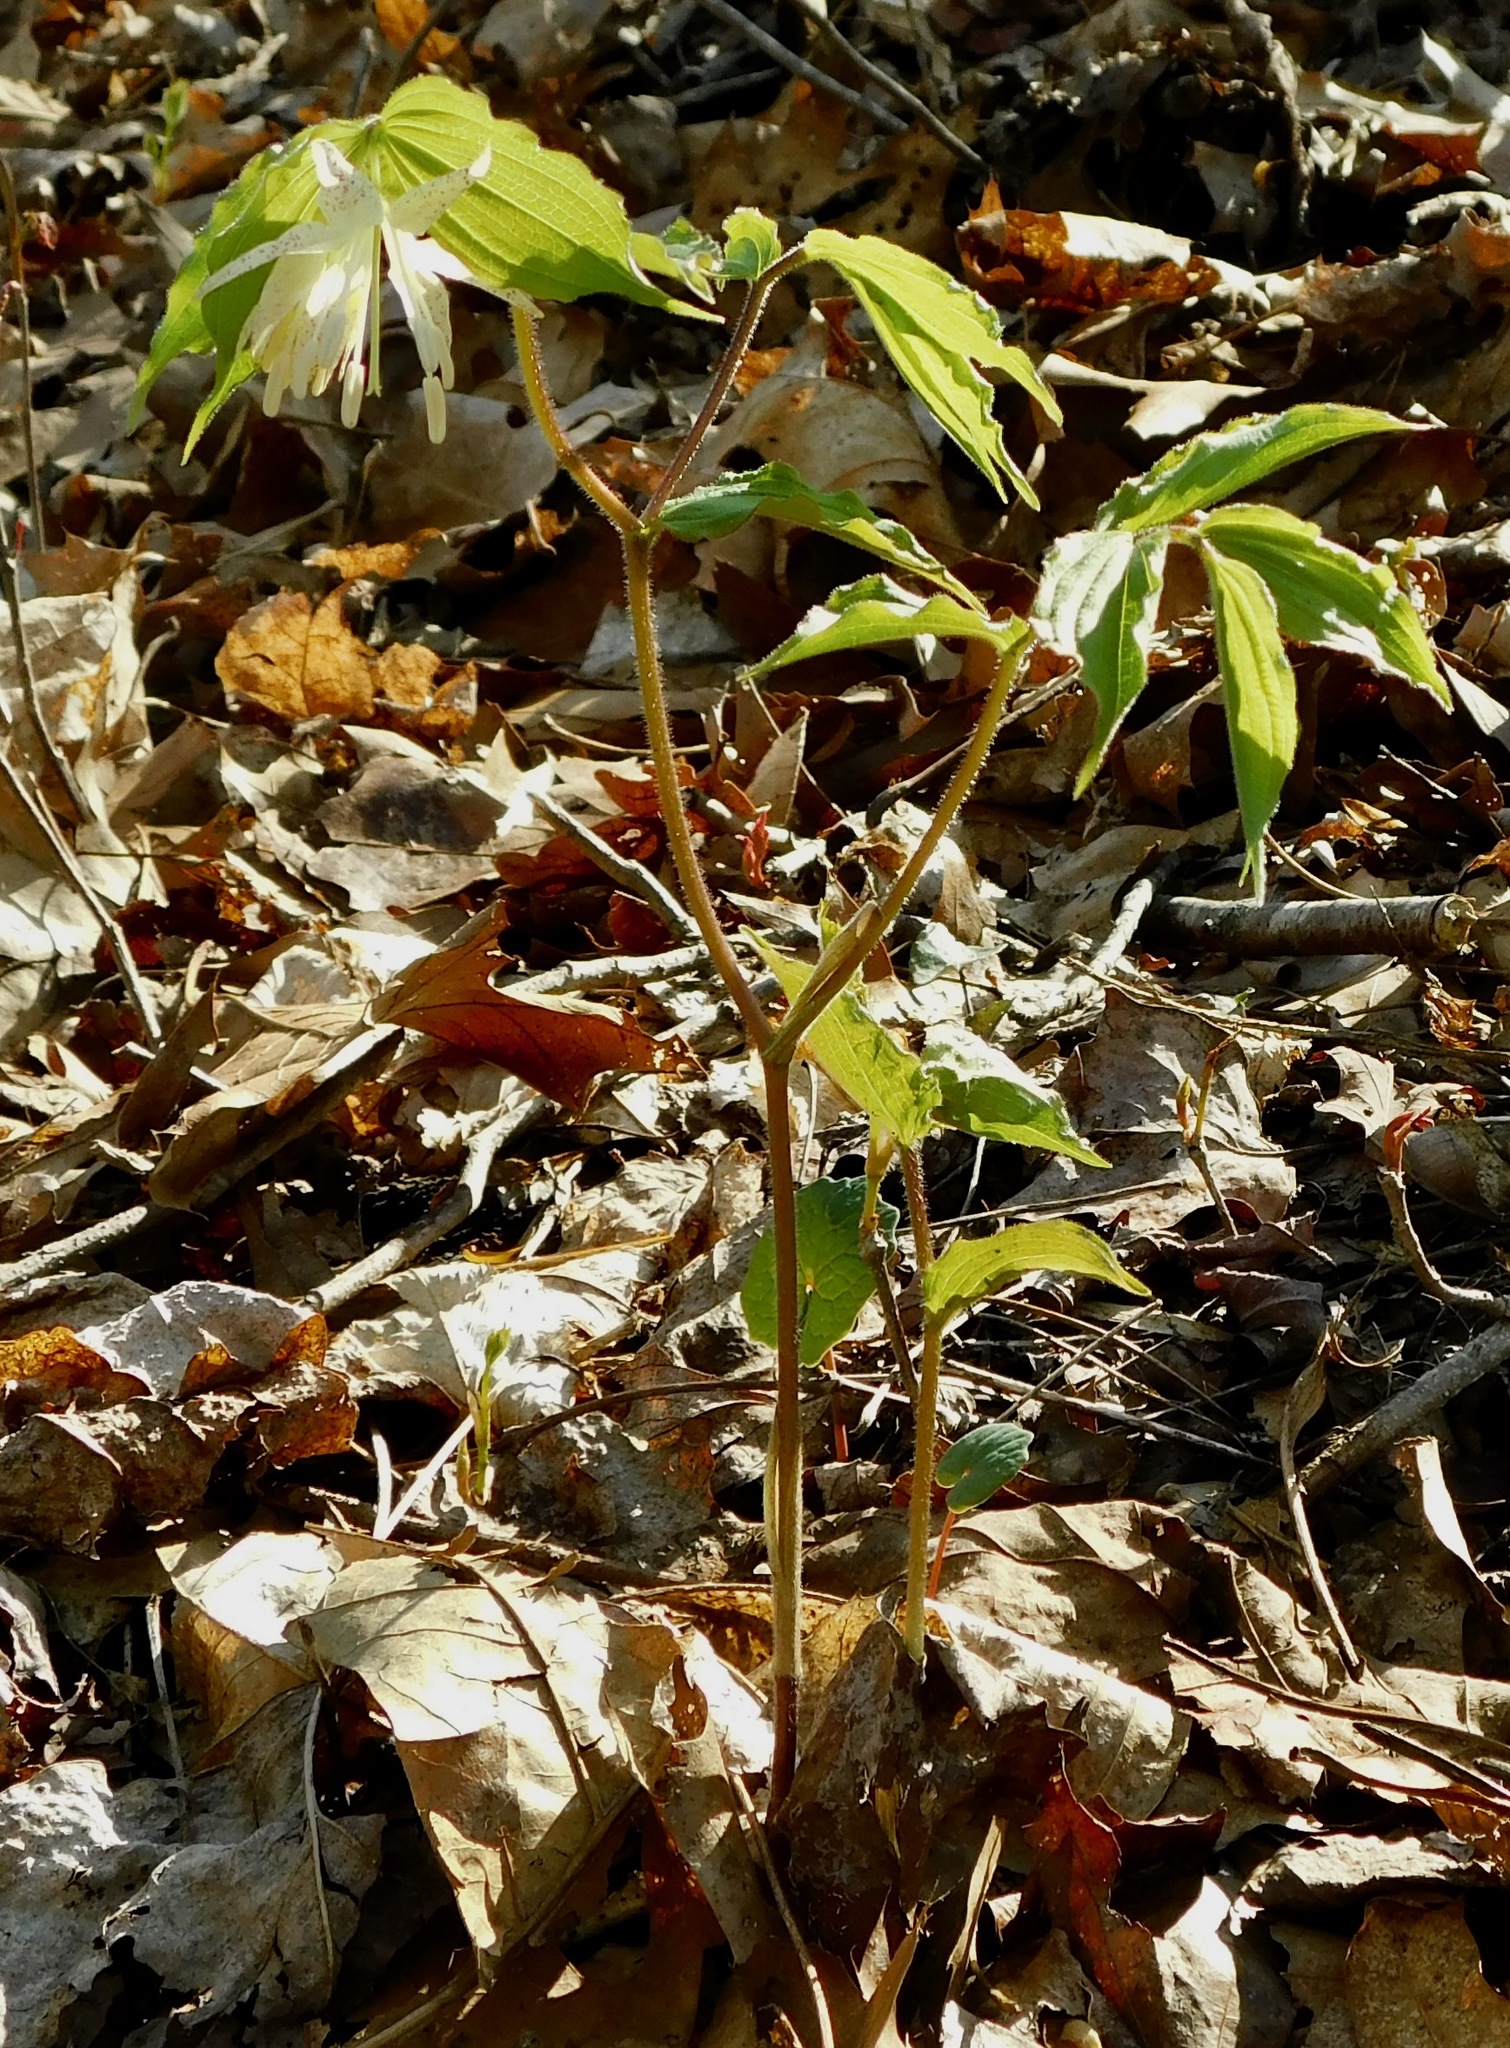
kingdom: Plantae
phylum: Tracheophyta
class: Liliopsida
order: Liliales
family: Liliaceae
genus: Prosartes
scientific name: Prosartes maculata
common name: Yellow mandarin
